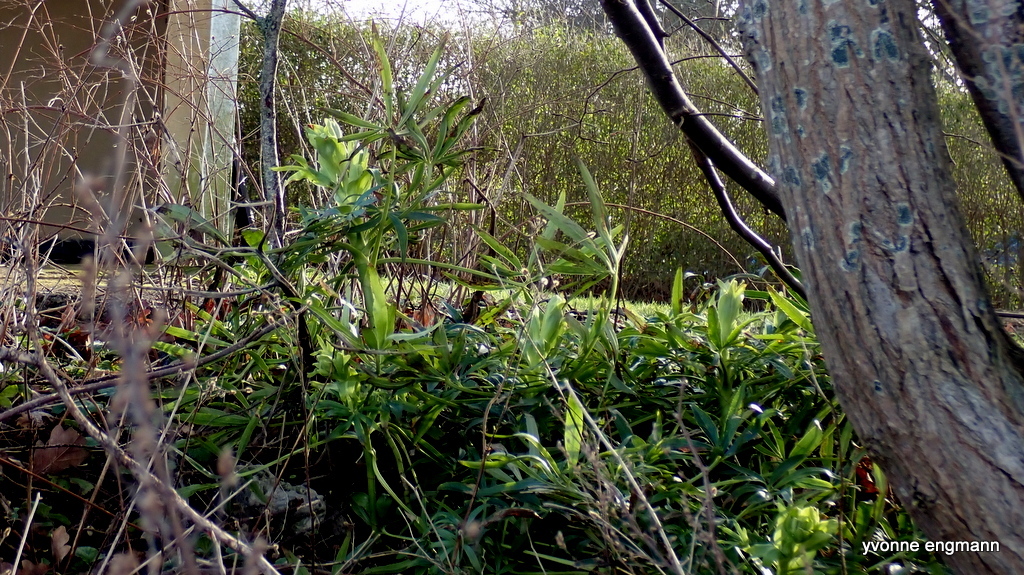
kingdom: Plantae
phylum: Tracheophyta
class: Magnoliopsida
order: Ranunculales
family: Ranunculaceae
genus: Helleborus
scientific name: Helleborus foetidus
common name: Stinking hellebore
